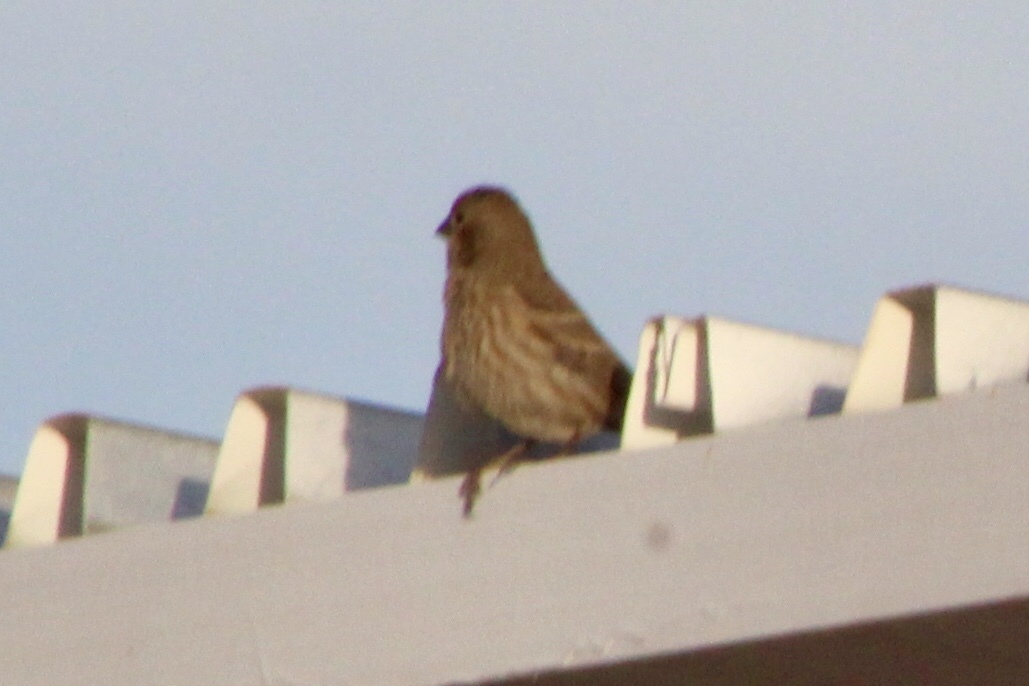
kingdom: Animalia
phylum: Chordata
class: Aves
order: Passeriformes
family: Fringillidae
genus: Haemorhous
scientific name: Haemorhous mexicanus
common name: House finch
